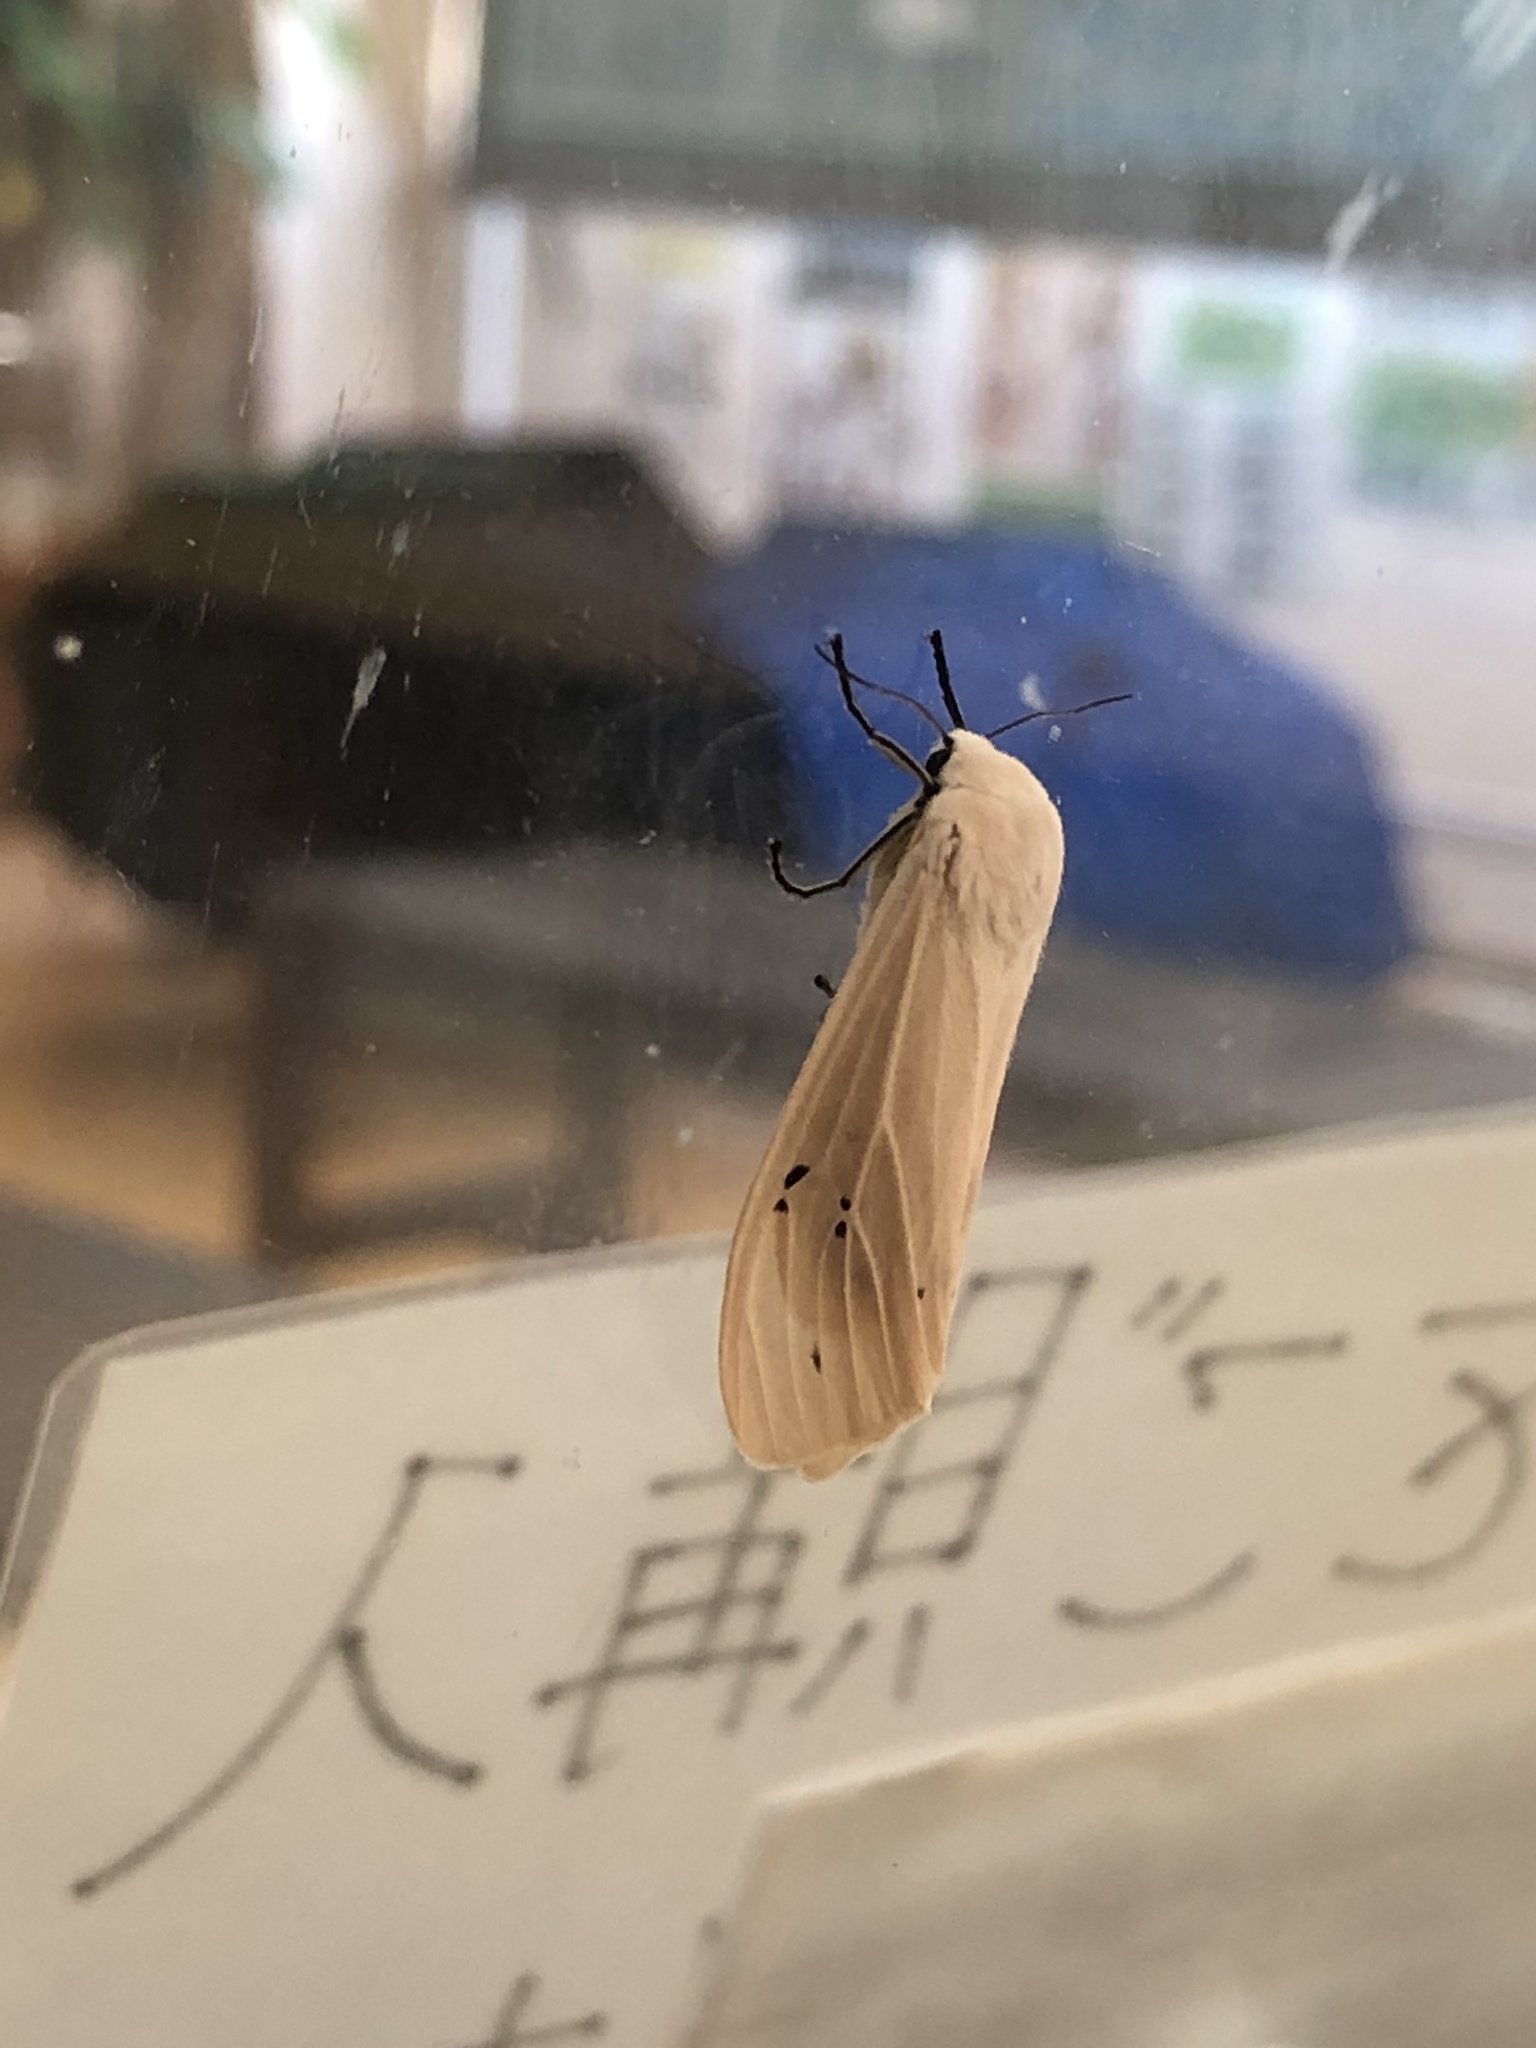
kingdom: Animalia
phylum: Arthropoda
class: Insecta
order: Lepidoptera
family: Erebidae
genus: Creatonotos
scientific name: Creatonotos transiens
